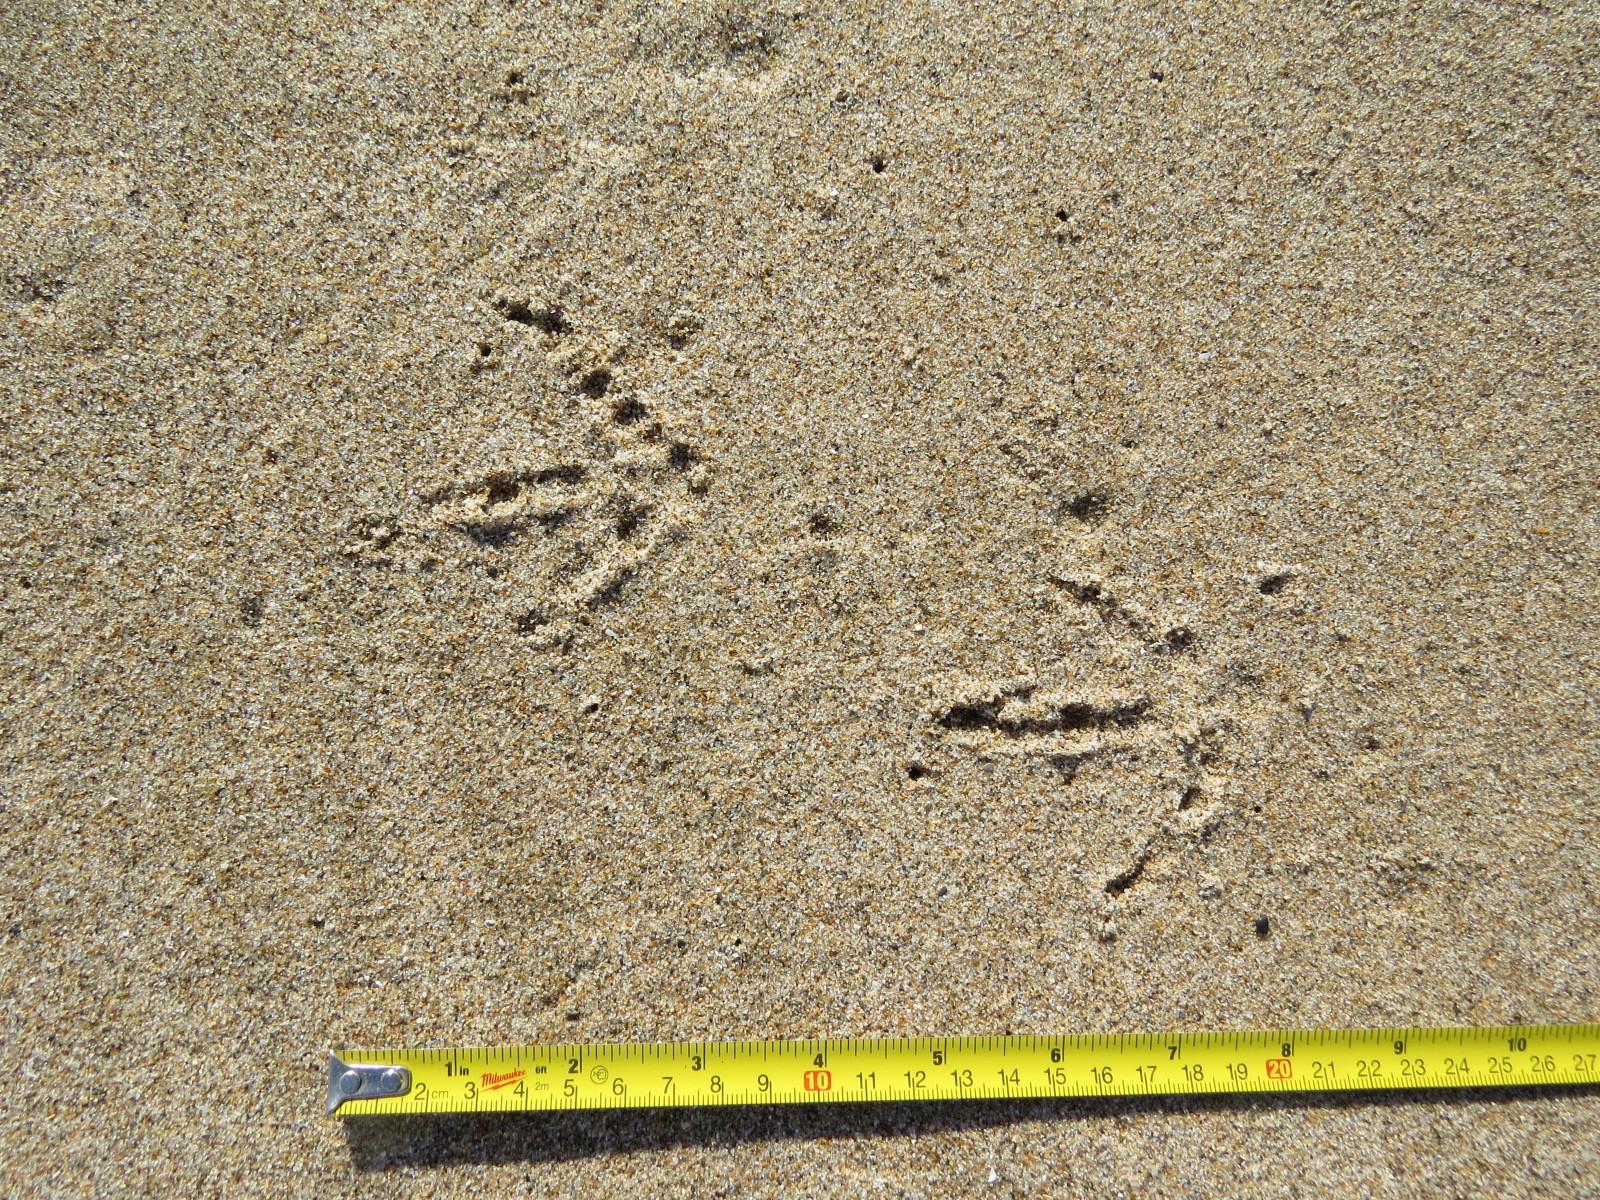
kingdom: Animalia
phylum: Chordata
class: Aves
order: Falconiformes
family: Falconidae
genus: Falco
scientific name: Falco peregrinus
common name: Peregrine falcon
